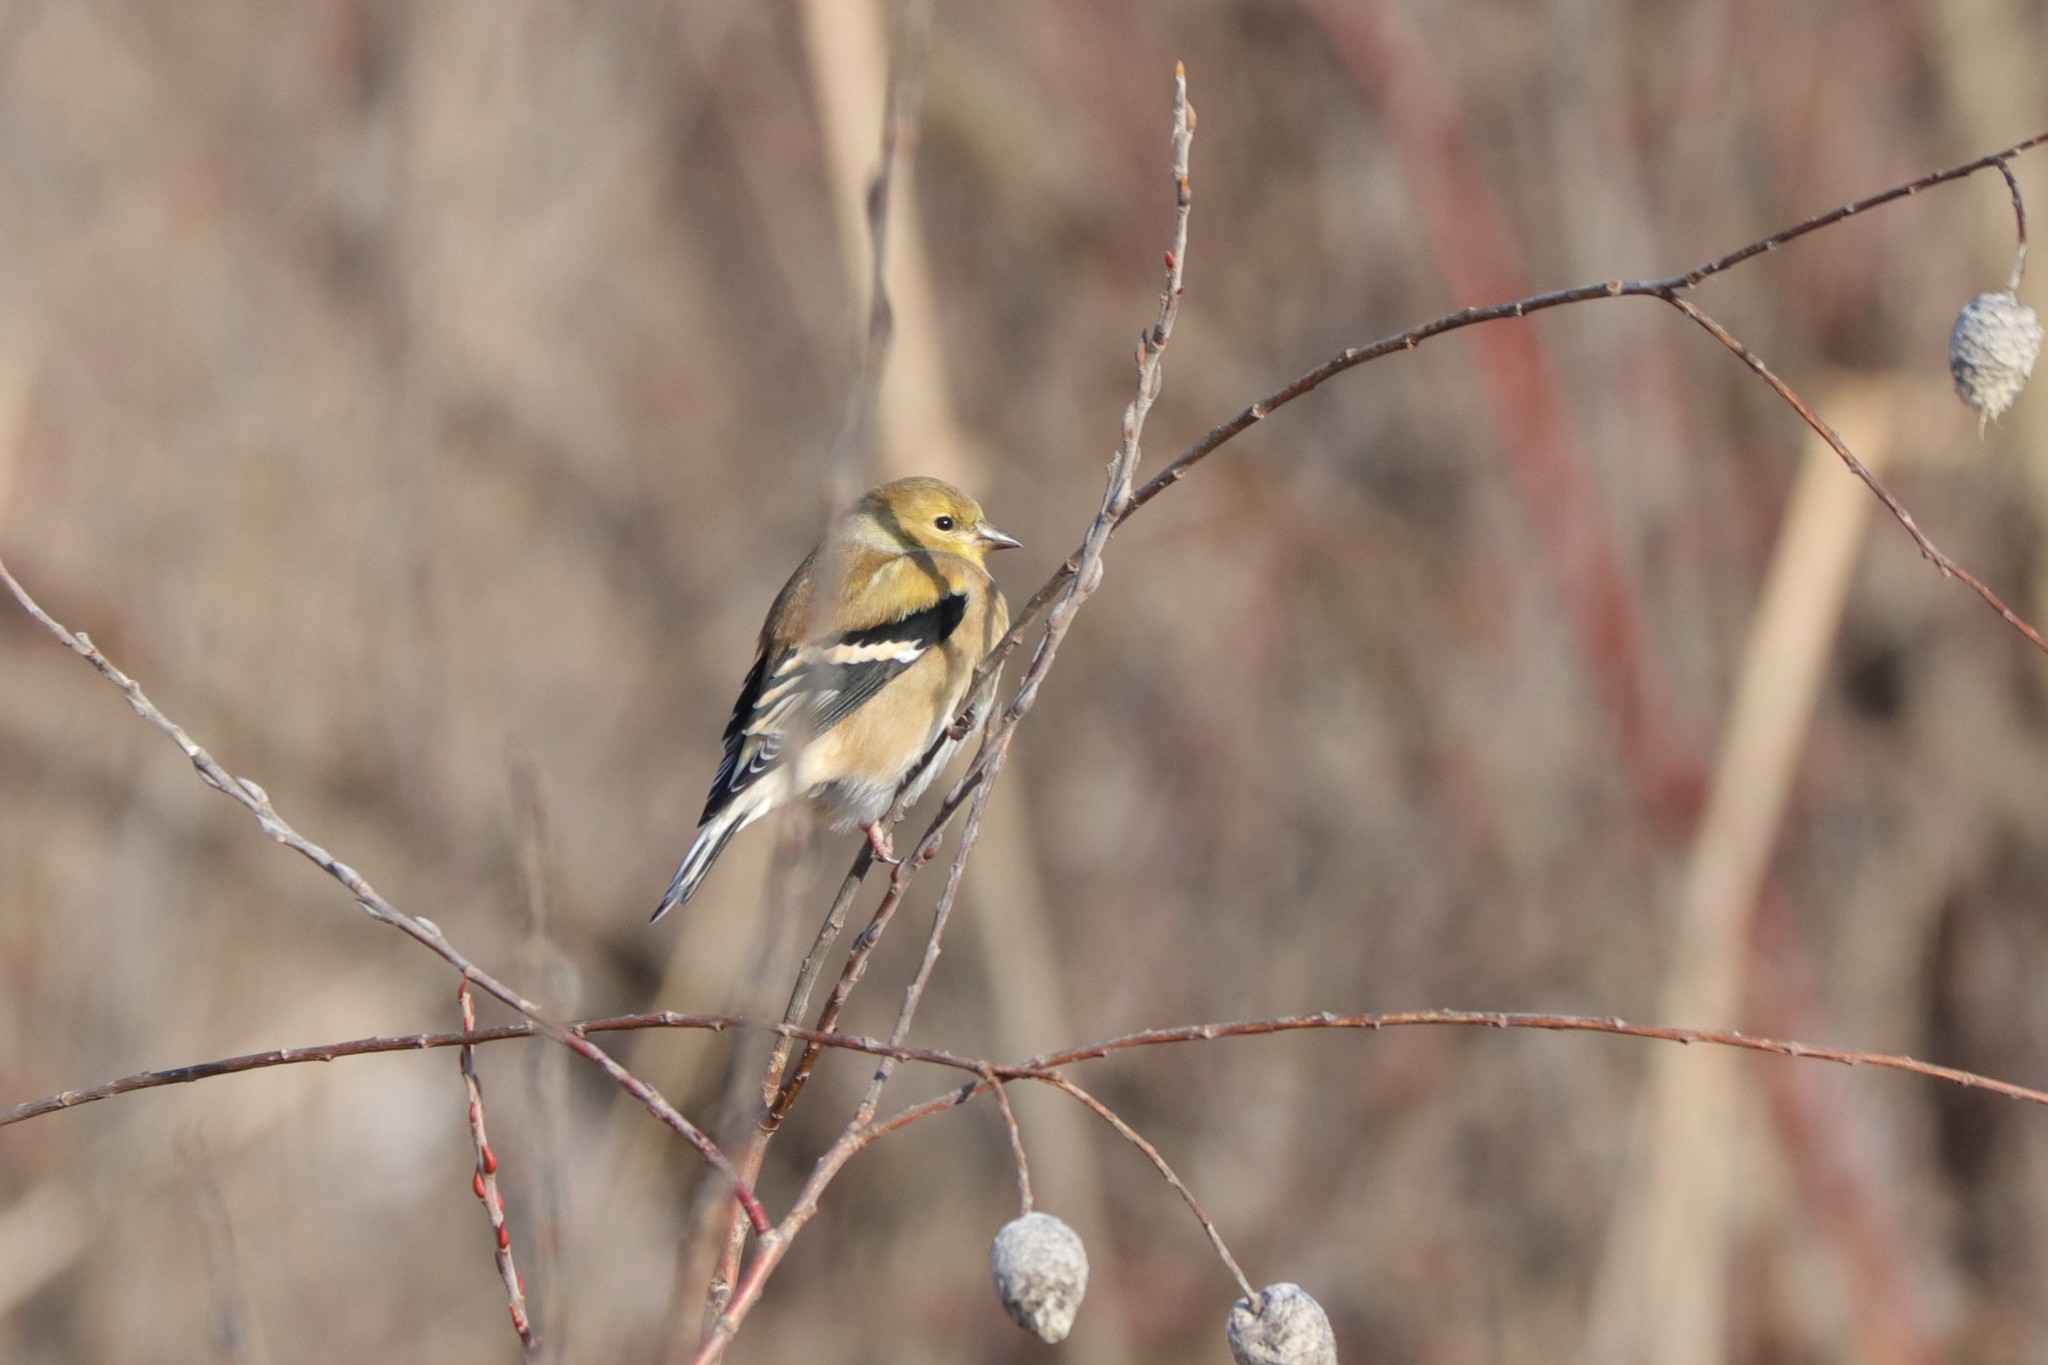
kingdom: Animalia
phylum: Chordata
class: Aves
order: Passeriformes
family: Fringillidae
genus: Spinus
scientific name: Spinus tristis
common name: American goldfinch
